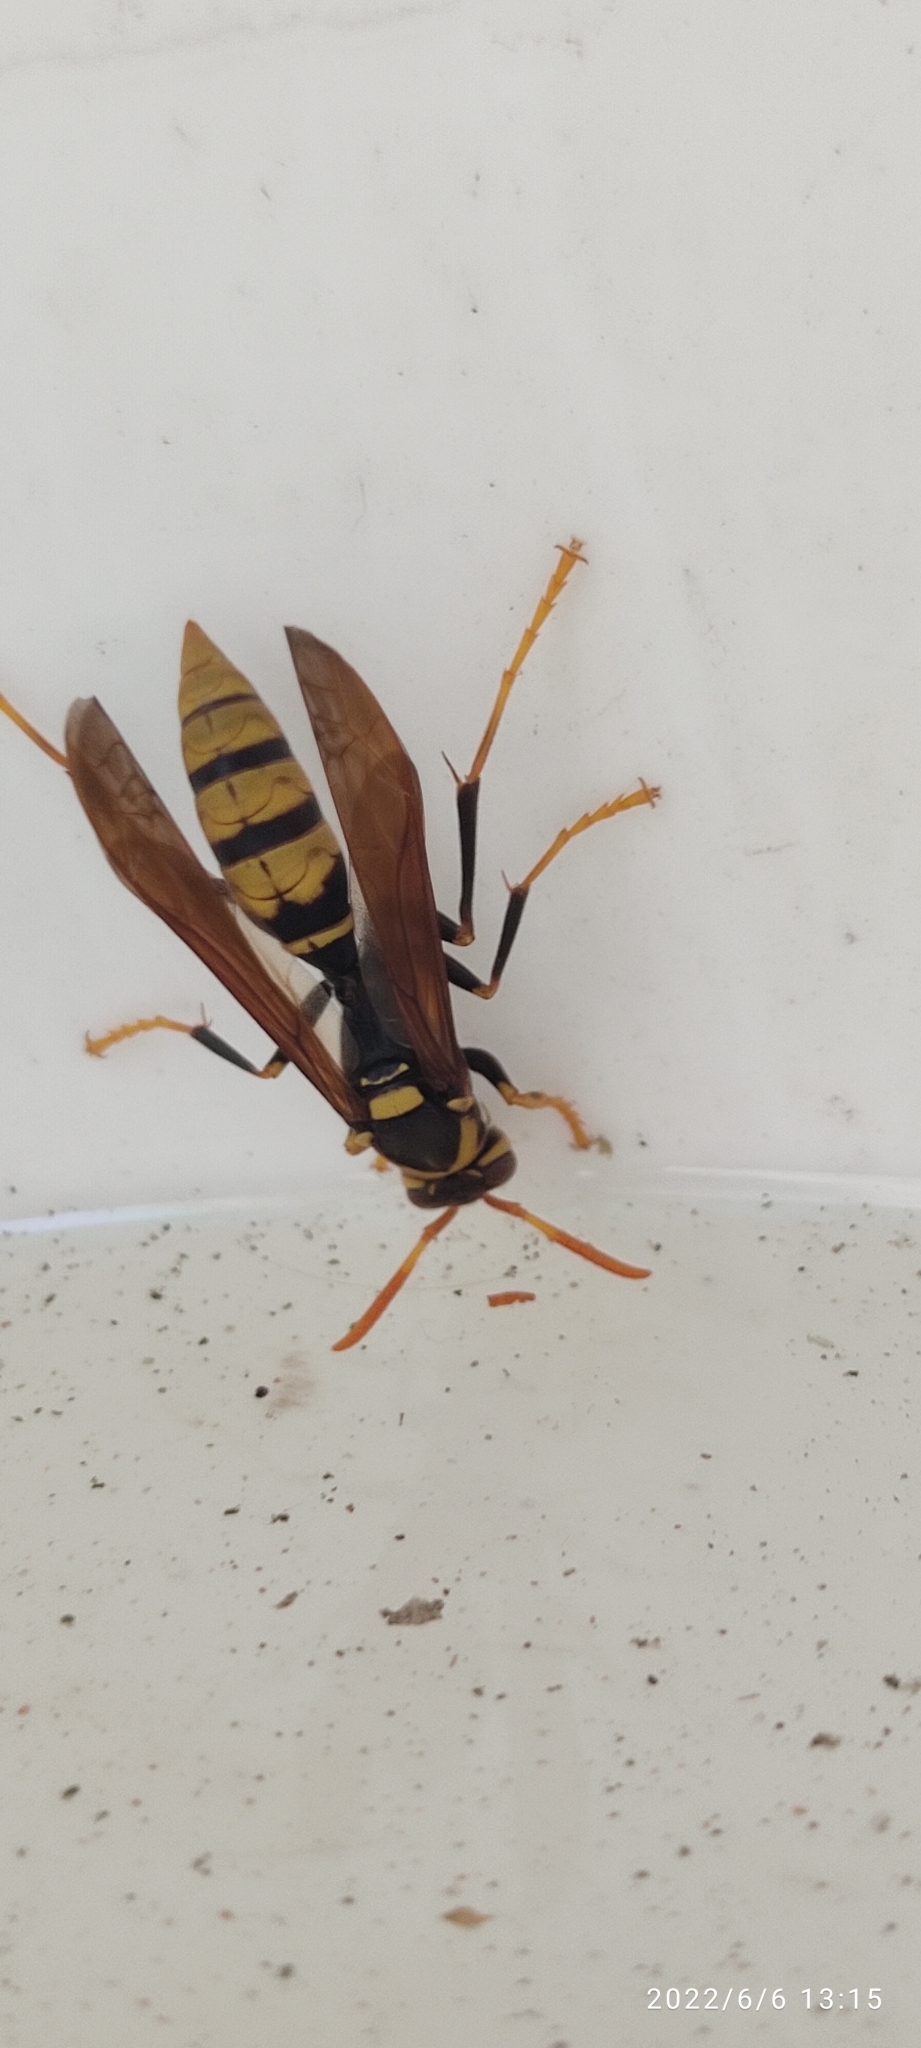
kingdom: Animalia
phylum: Arthropoda
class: Insecta
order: Hymenoptera
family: Eumenidae
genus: Polistes
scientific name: Polistes xanthogaster
